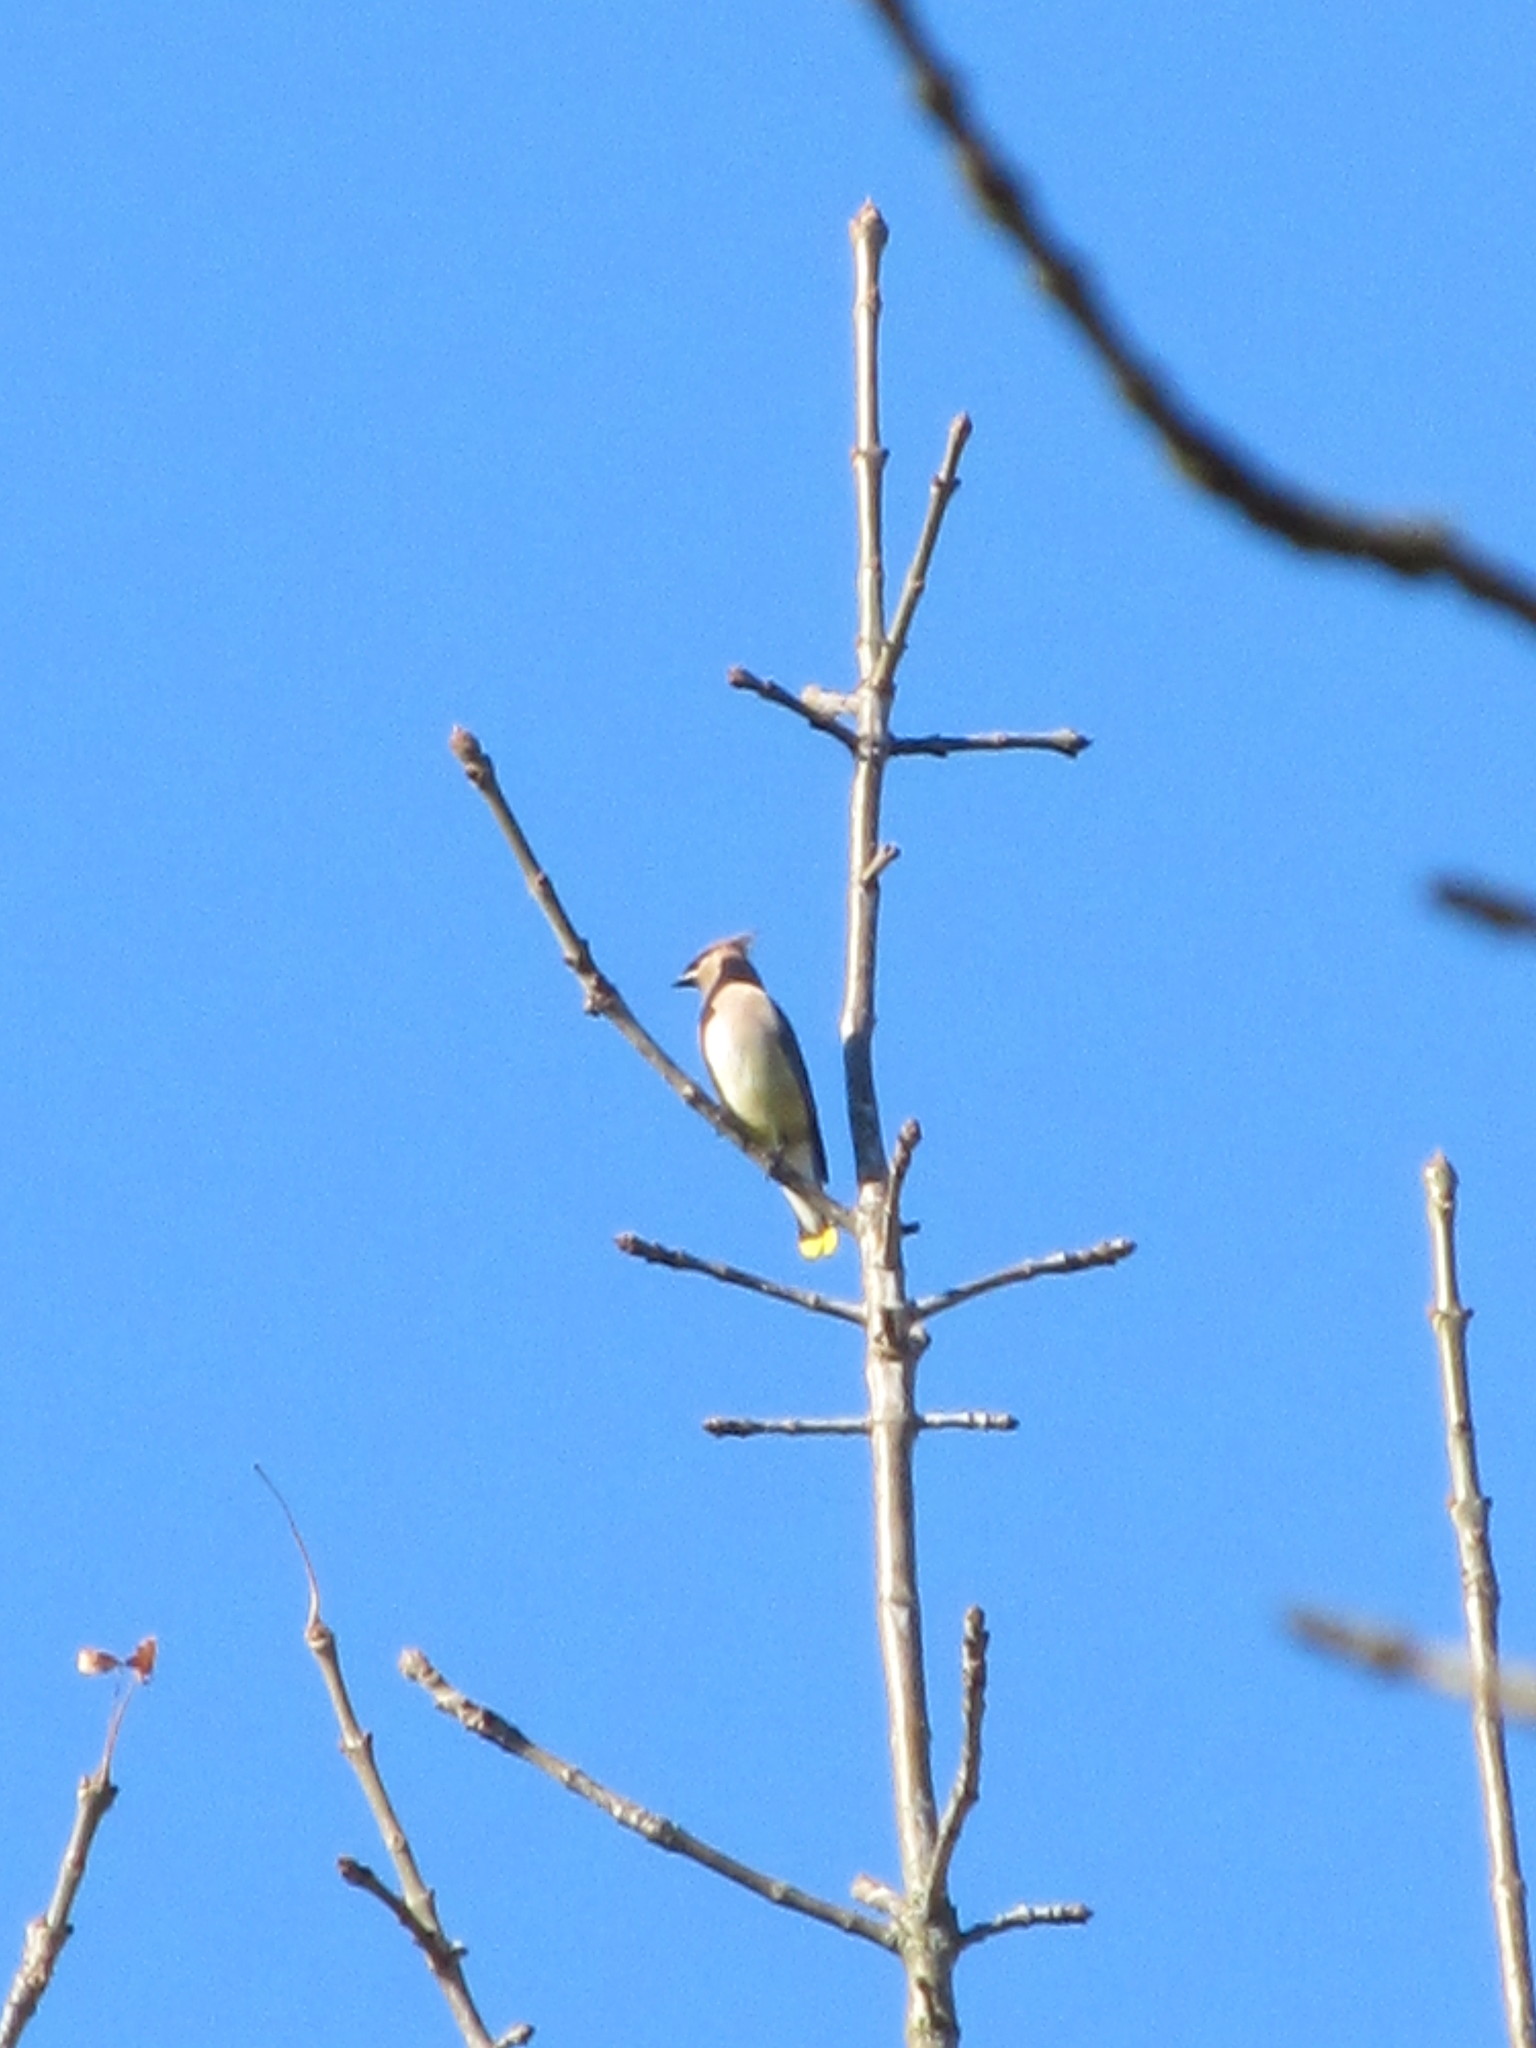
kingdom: Animalia
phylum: Chordata
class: Aves
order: Passeriformes
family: Bombycillidae
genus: Bombycilla
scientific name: Bombycilla cedrorum
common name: Cedar waxwing
